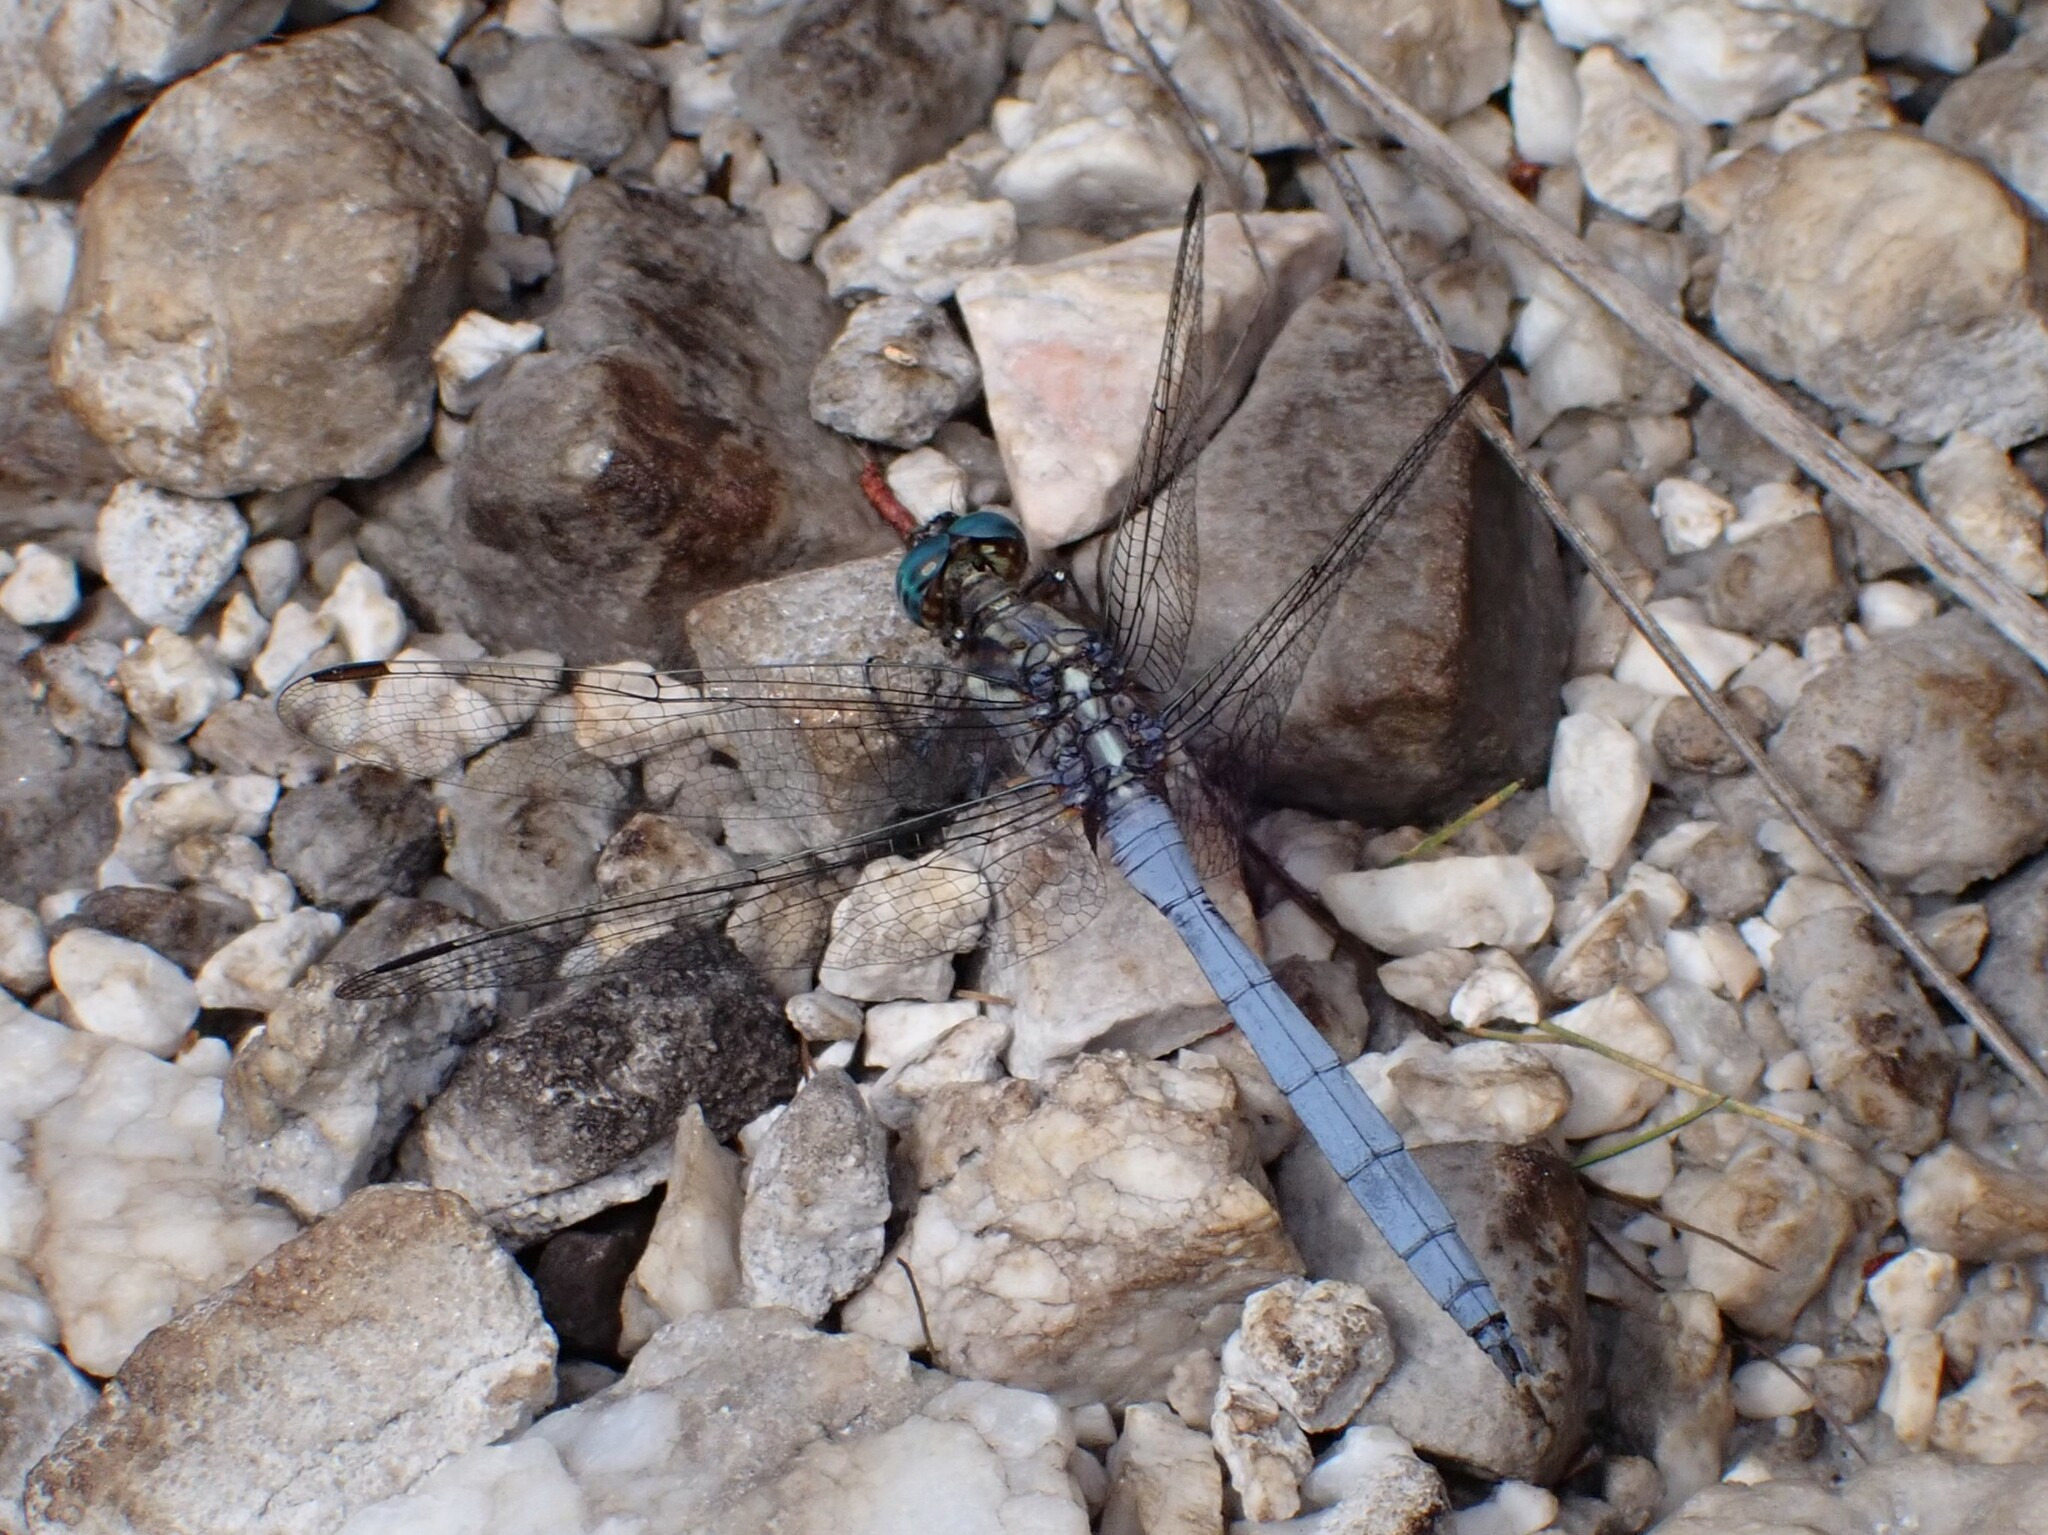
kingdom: Animalia
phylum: Arthropoda
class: Insecta
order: Odonata
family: Libellulidae
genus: Orthetrum
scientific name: Orthetrum julia
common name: Julia skimmer
